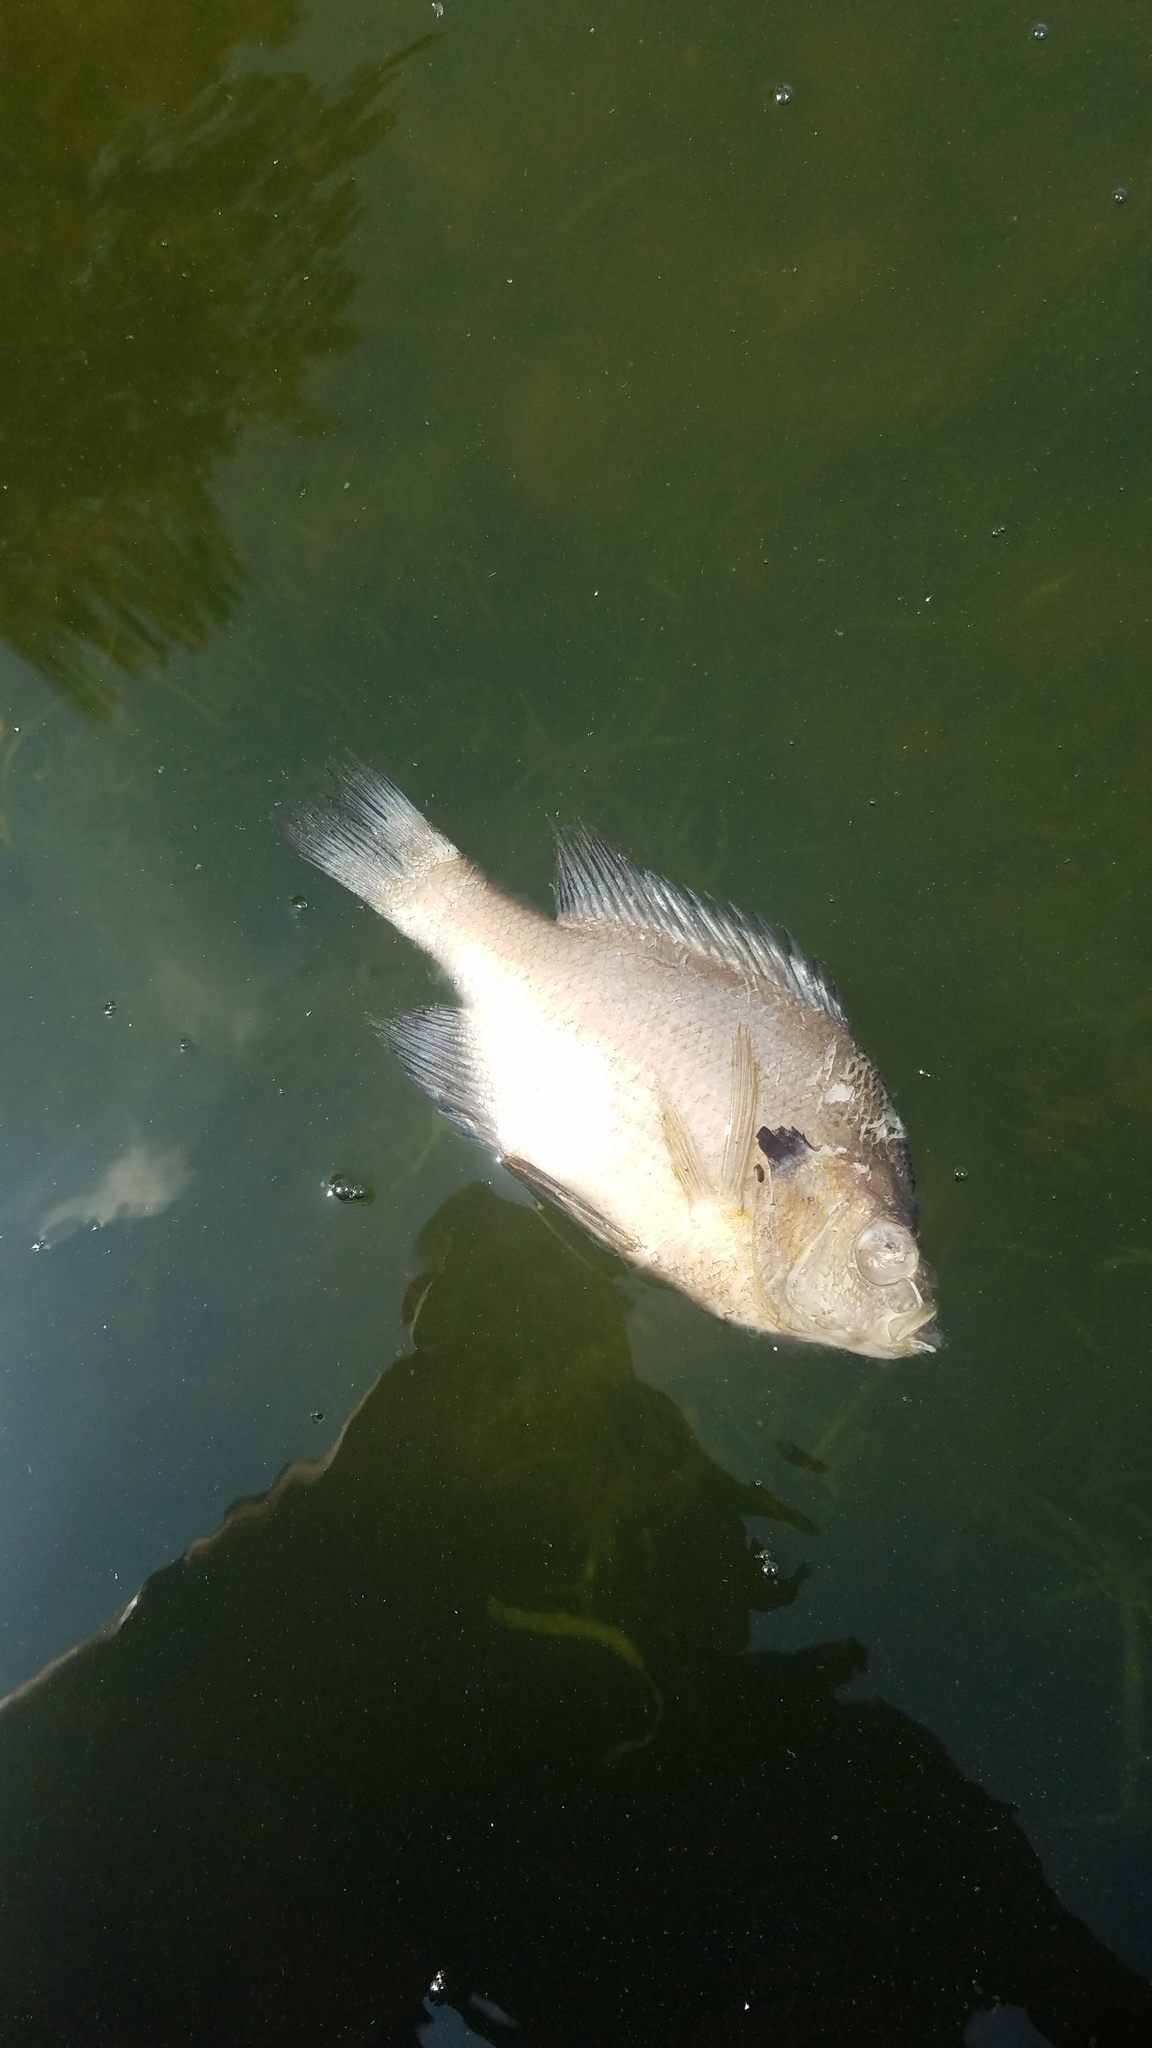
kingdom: Animalia
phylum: Chordata
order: Perciformes
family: Centrarchidae
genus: Lepomis
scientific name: Lepomis macrochirus
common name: Bluegill
